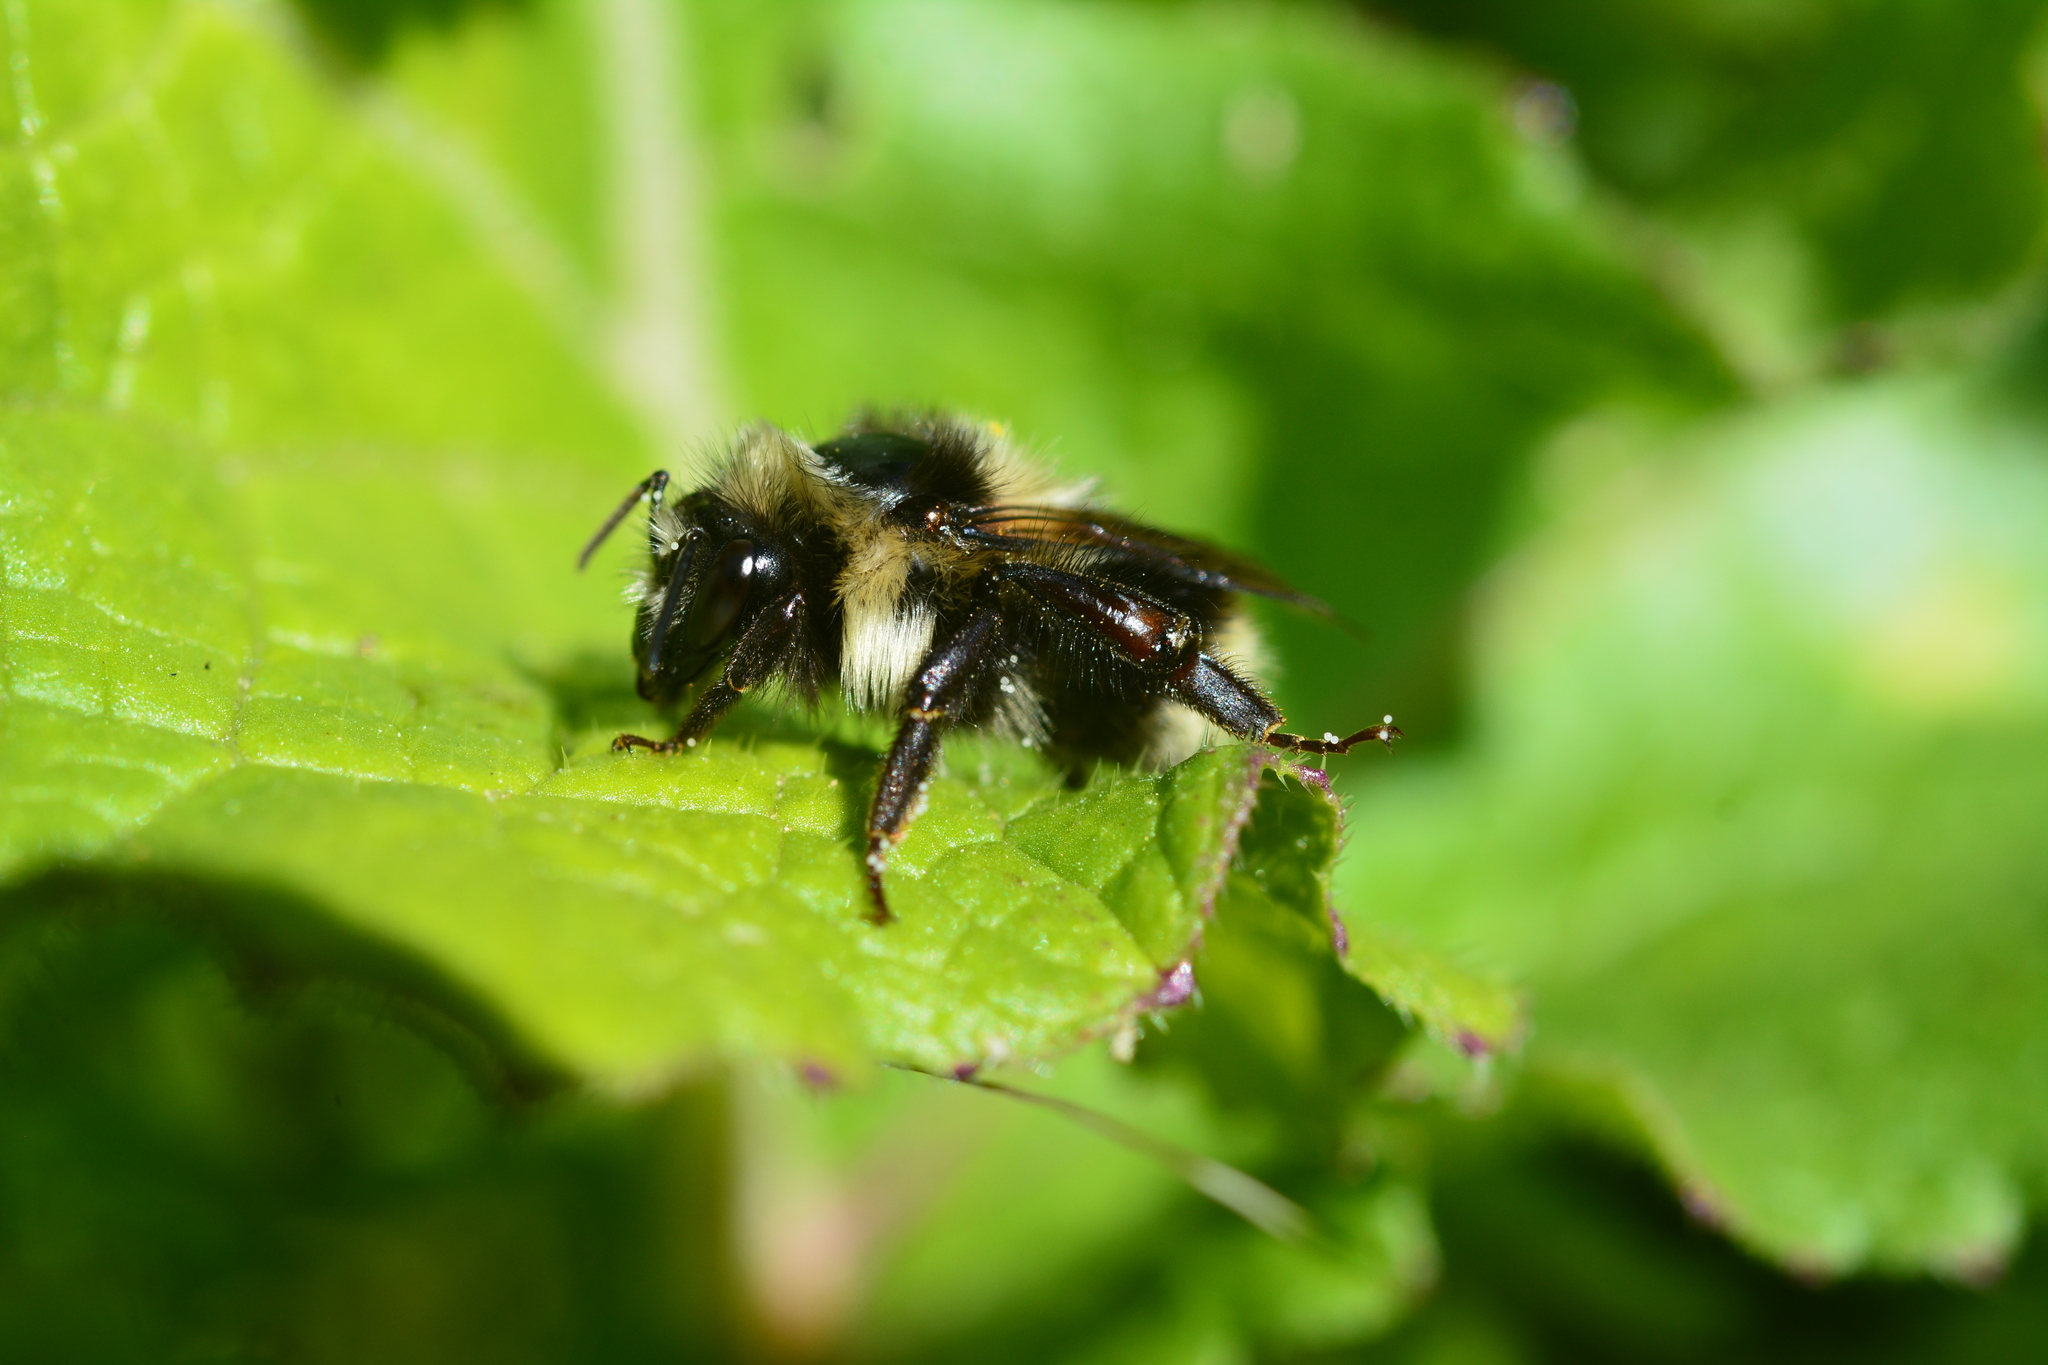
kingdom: Animalia
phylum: Arthropoda
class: Insecta
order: Hymenoptera
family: Apidae
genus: Bombus
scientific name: Bombus melanopygus
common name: Black tail bumble bee
